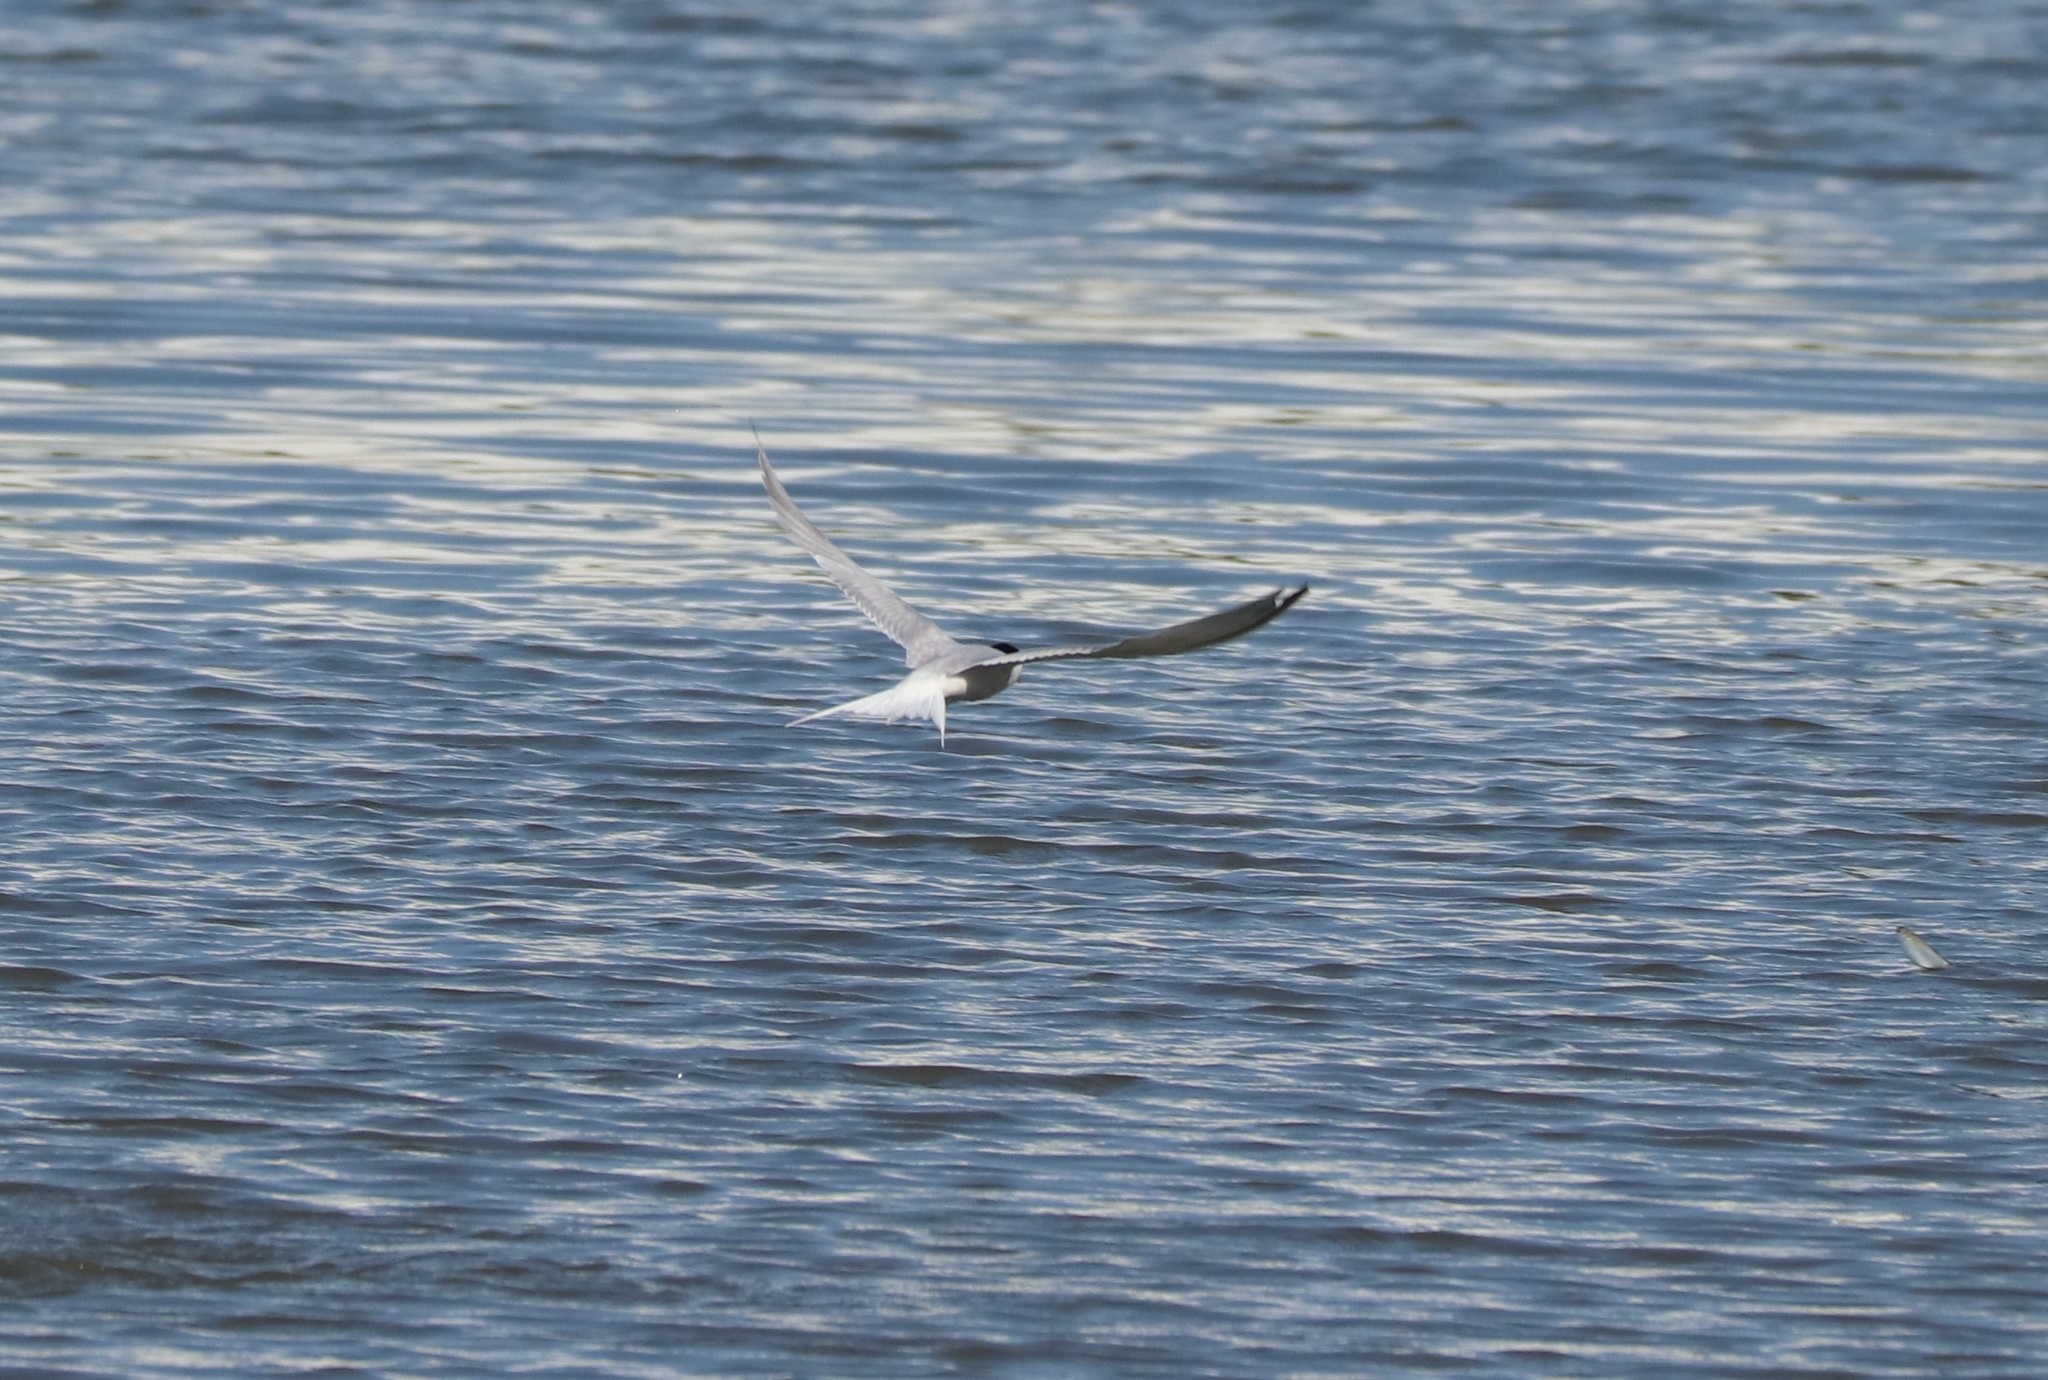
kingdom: Animalia
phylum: Chordata
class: Aves
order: Charadriiformes
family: Laridae
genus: Sternula
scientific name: Sternula albifrons
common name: Little tern
